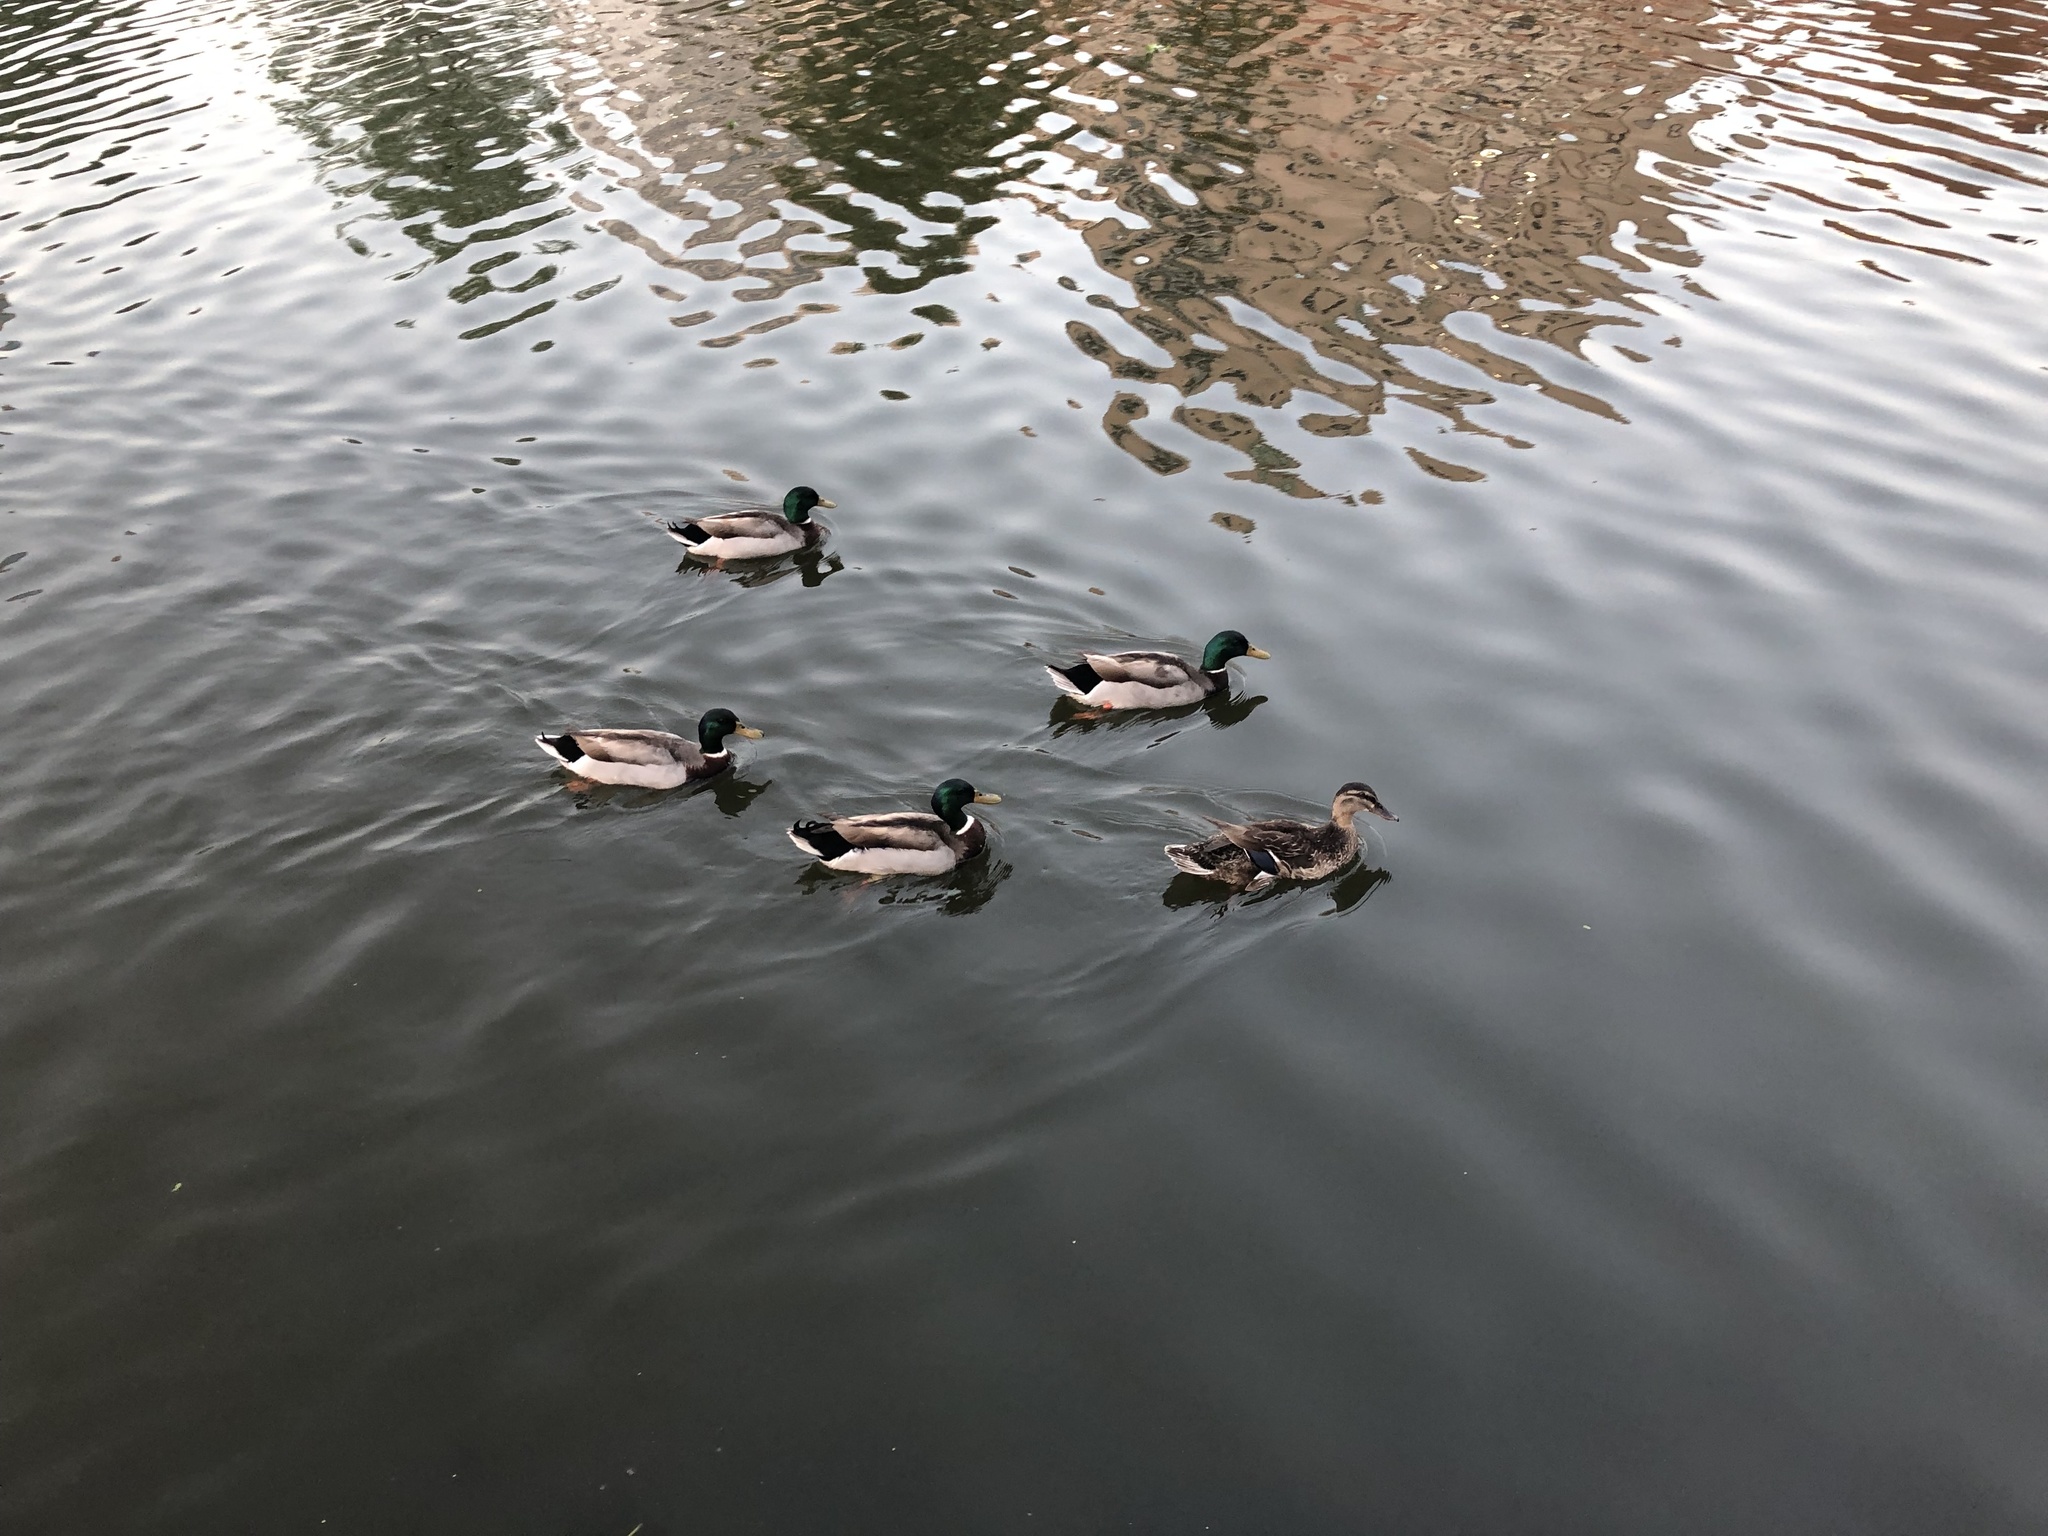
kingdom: Animalia
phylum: Chordata
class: Aves
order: Anseriformes
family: Anatidae
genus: Anas
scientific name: Anas platyrhynchos
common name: Mallard
